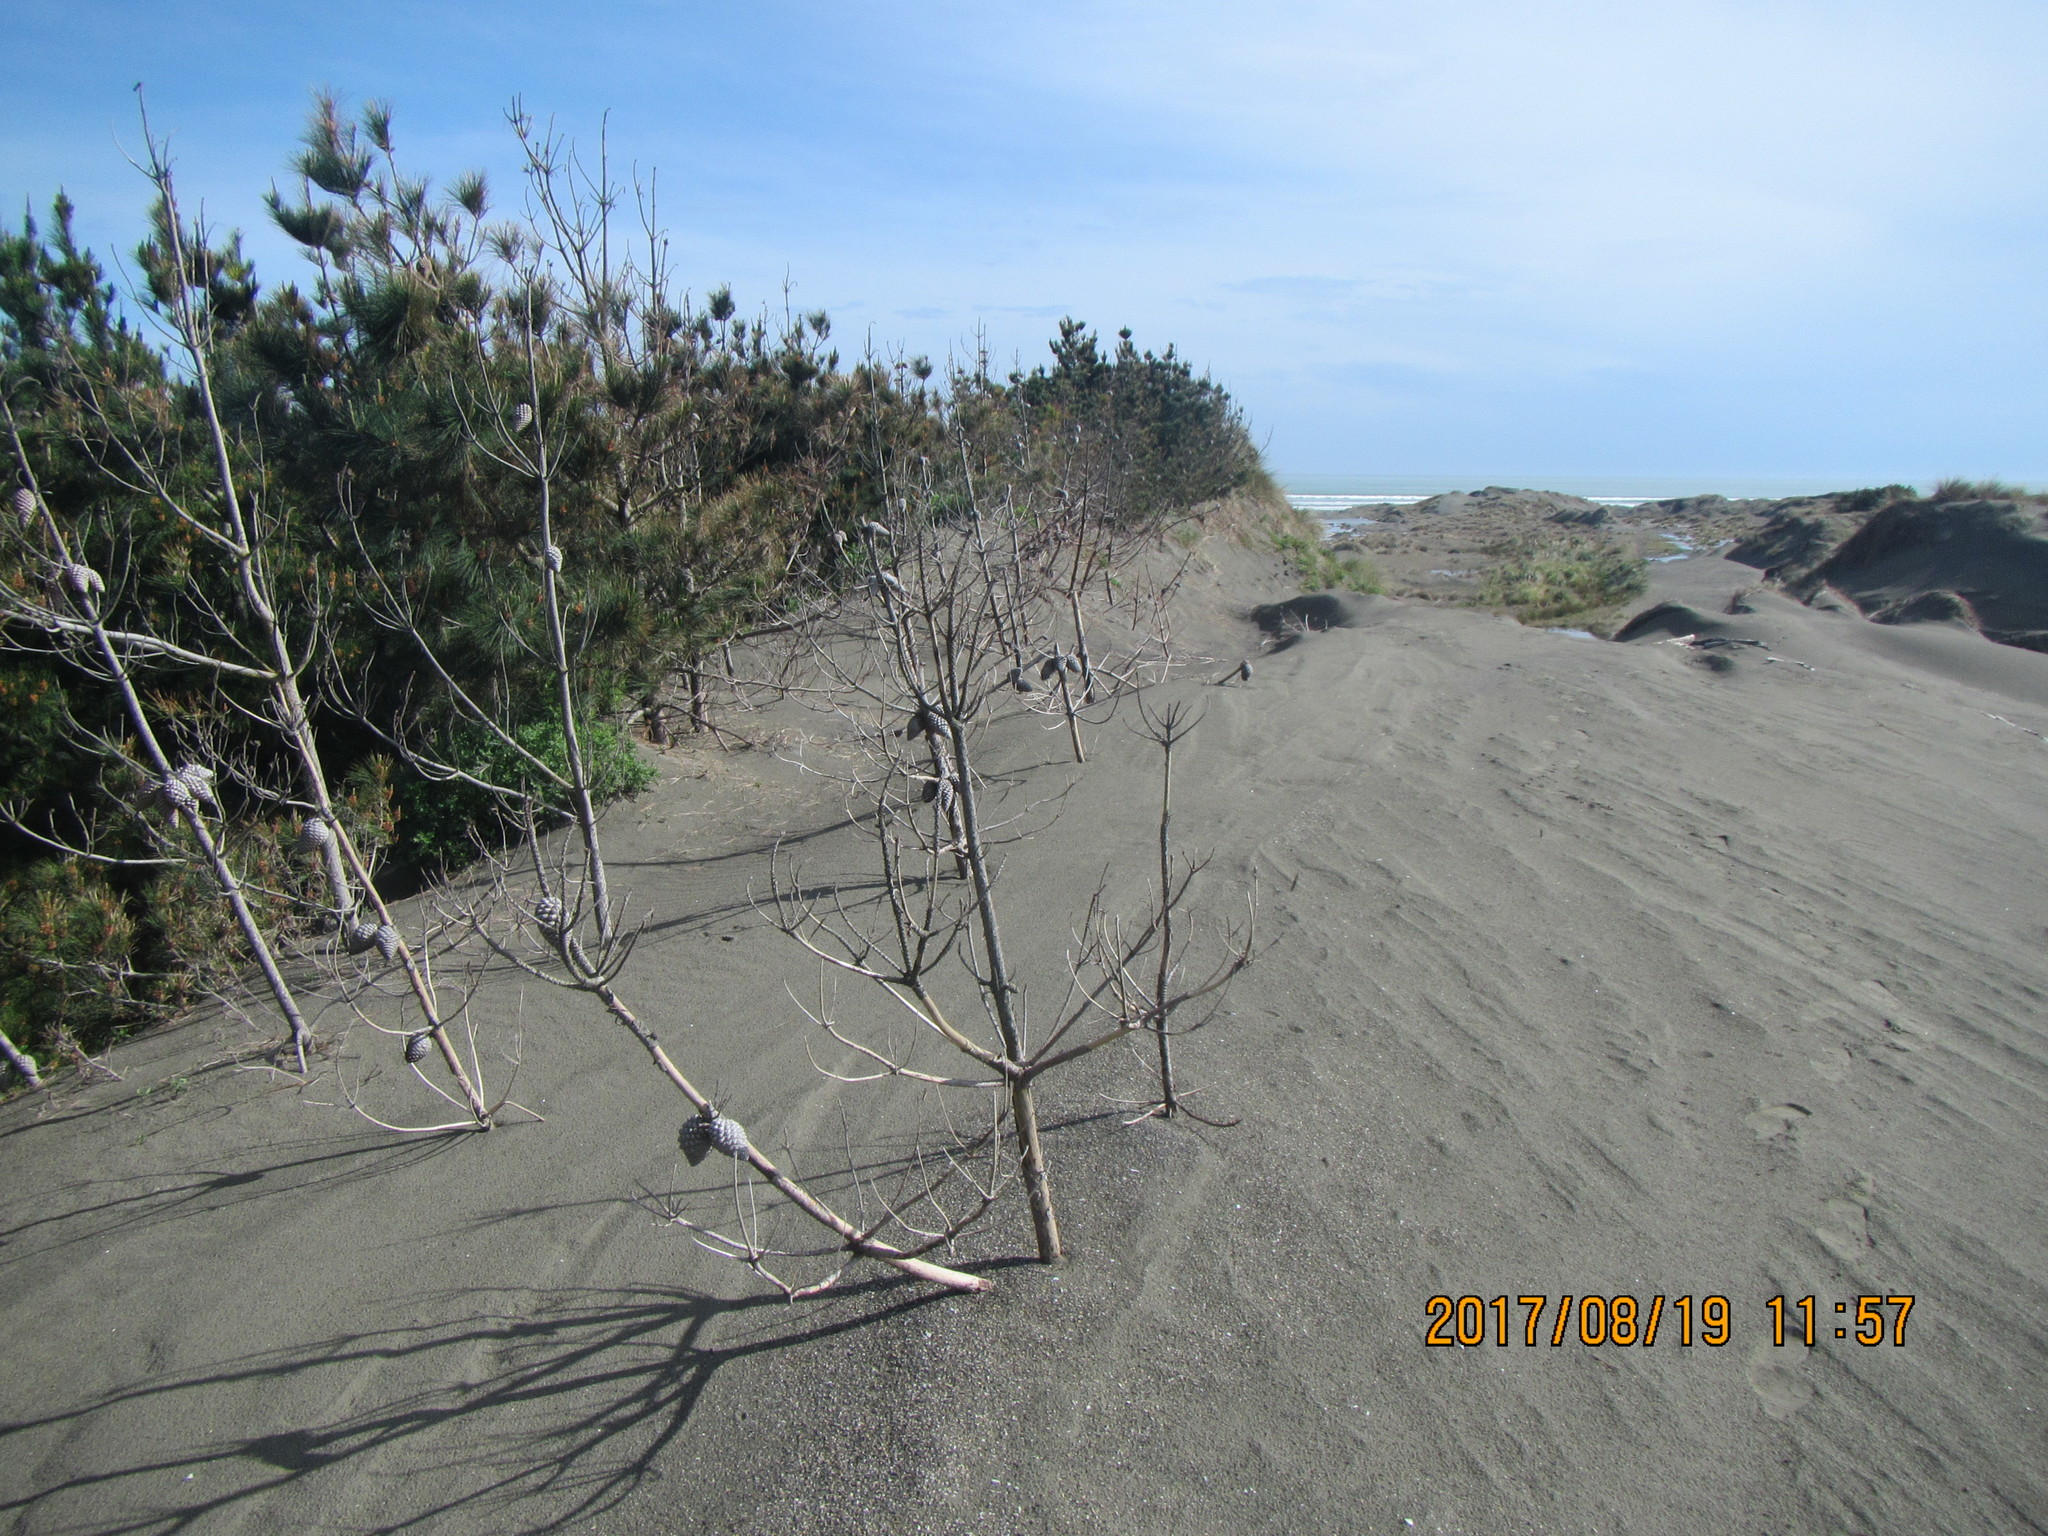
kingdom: Plantae
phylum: Tracheophyta
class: Pinopsida
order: Pinales
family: Pinaceae
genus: Pinus
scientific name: Pinus radiata
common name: Monterey pine
